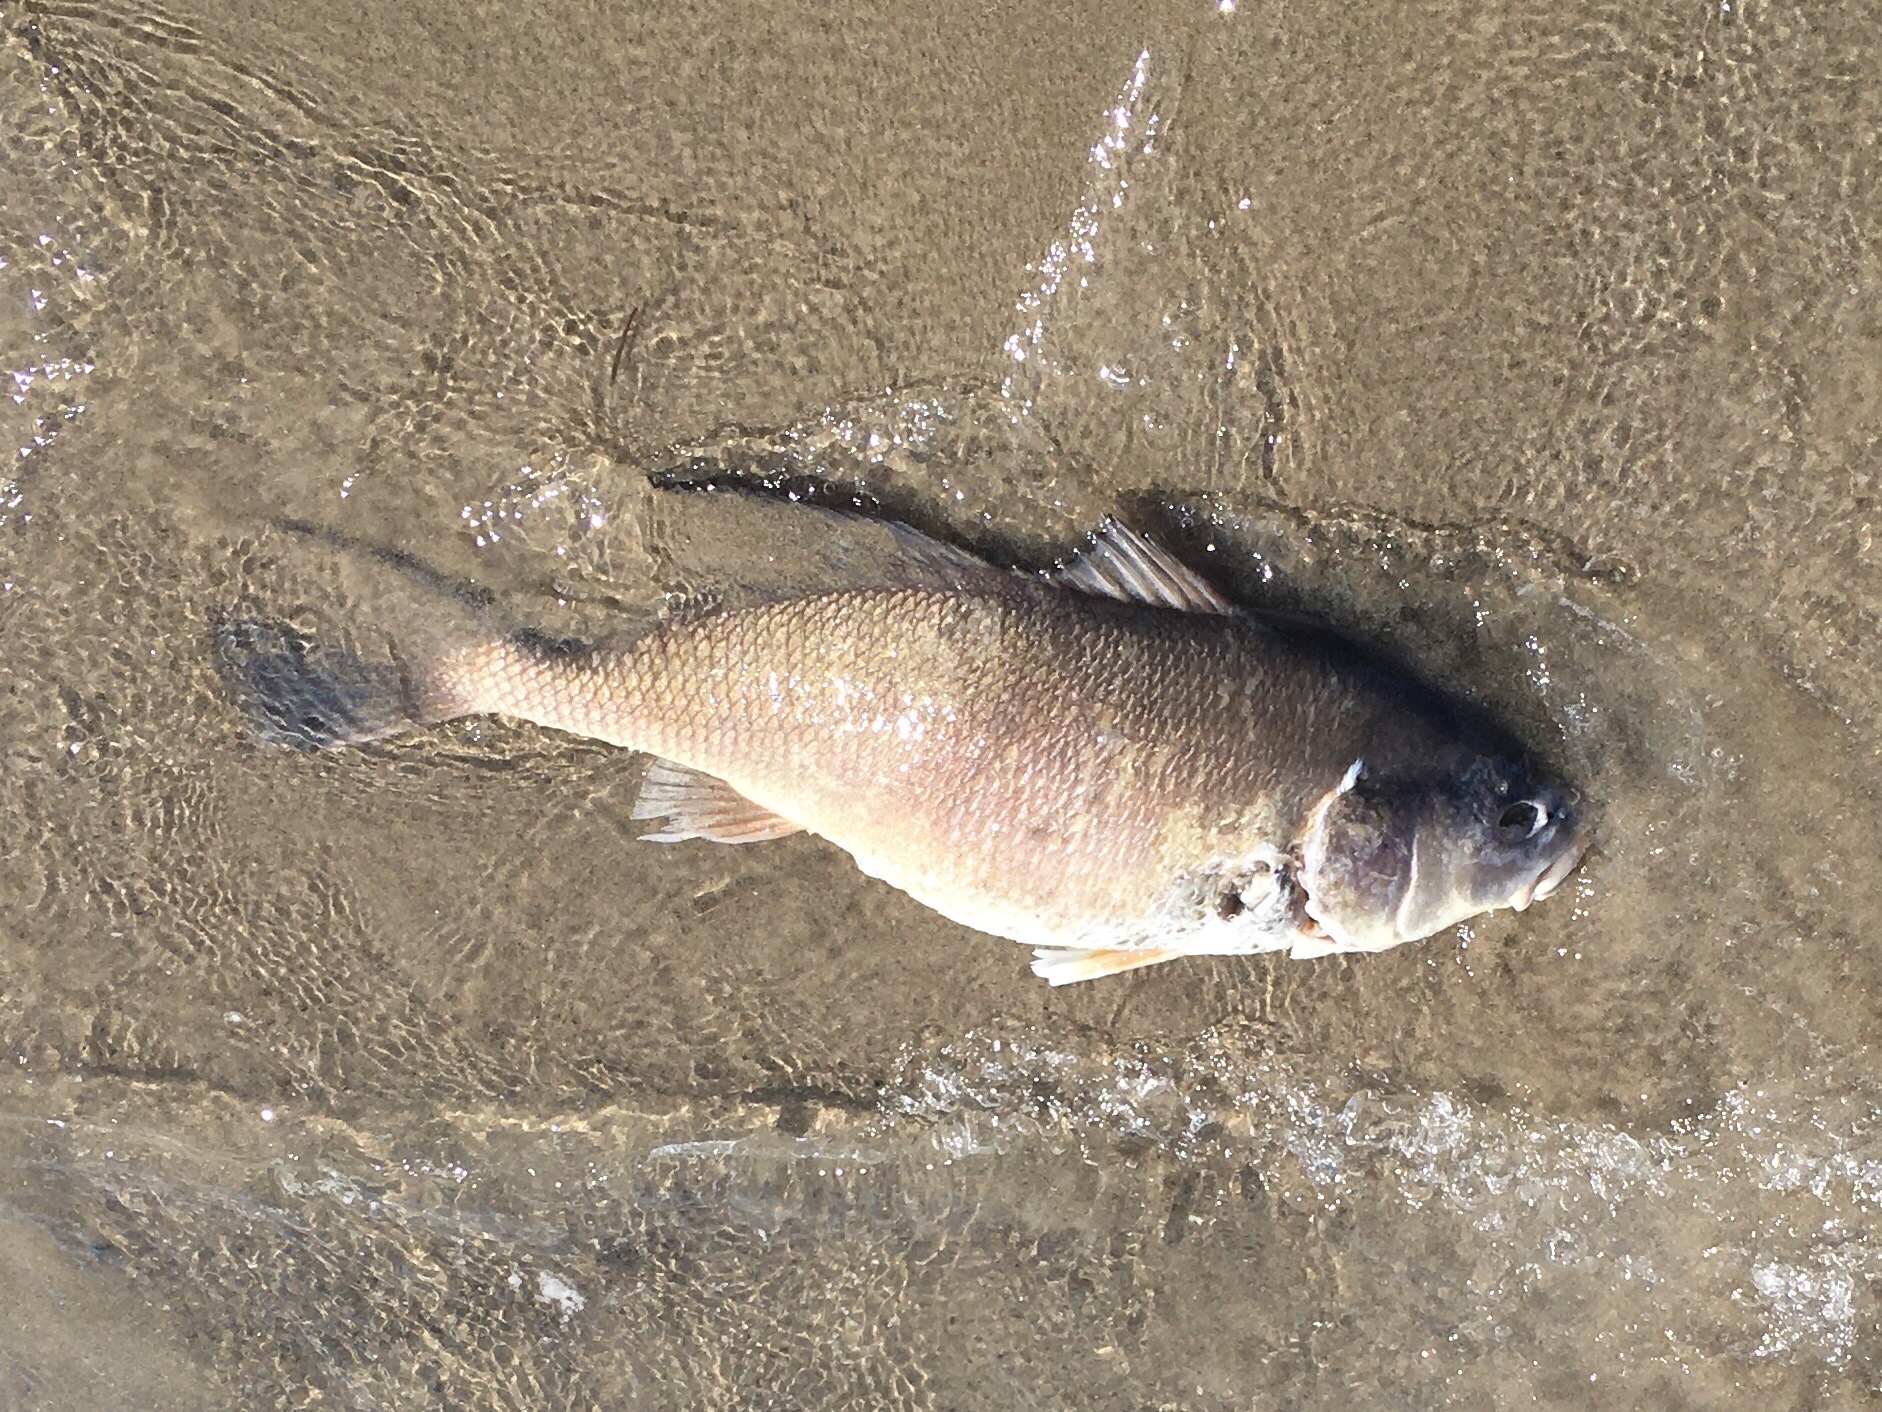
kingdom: Animalia
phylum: Chordata
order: Perciformes
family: Sciaenidae
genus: Aplodinotus
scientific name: Aplodinotus grunniens
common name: Freshwater drum
